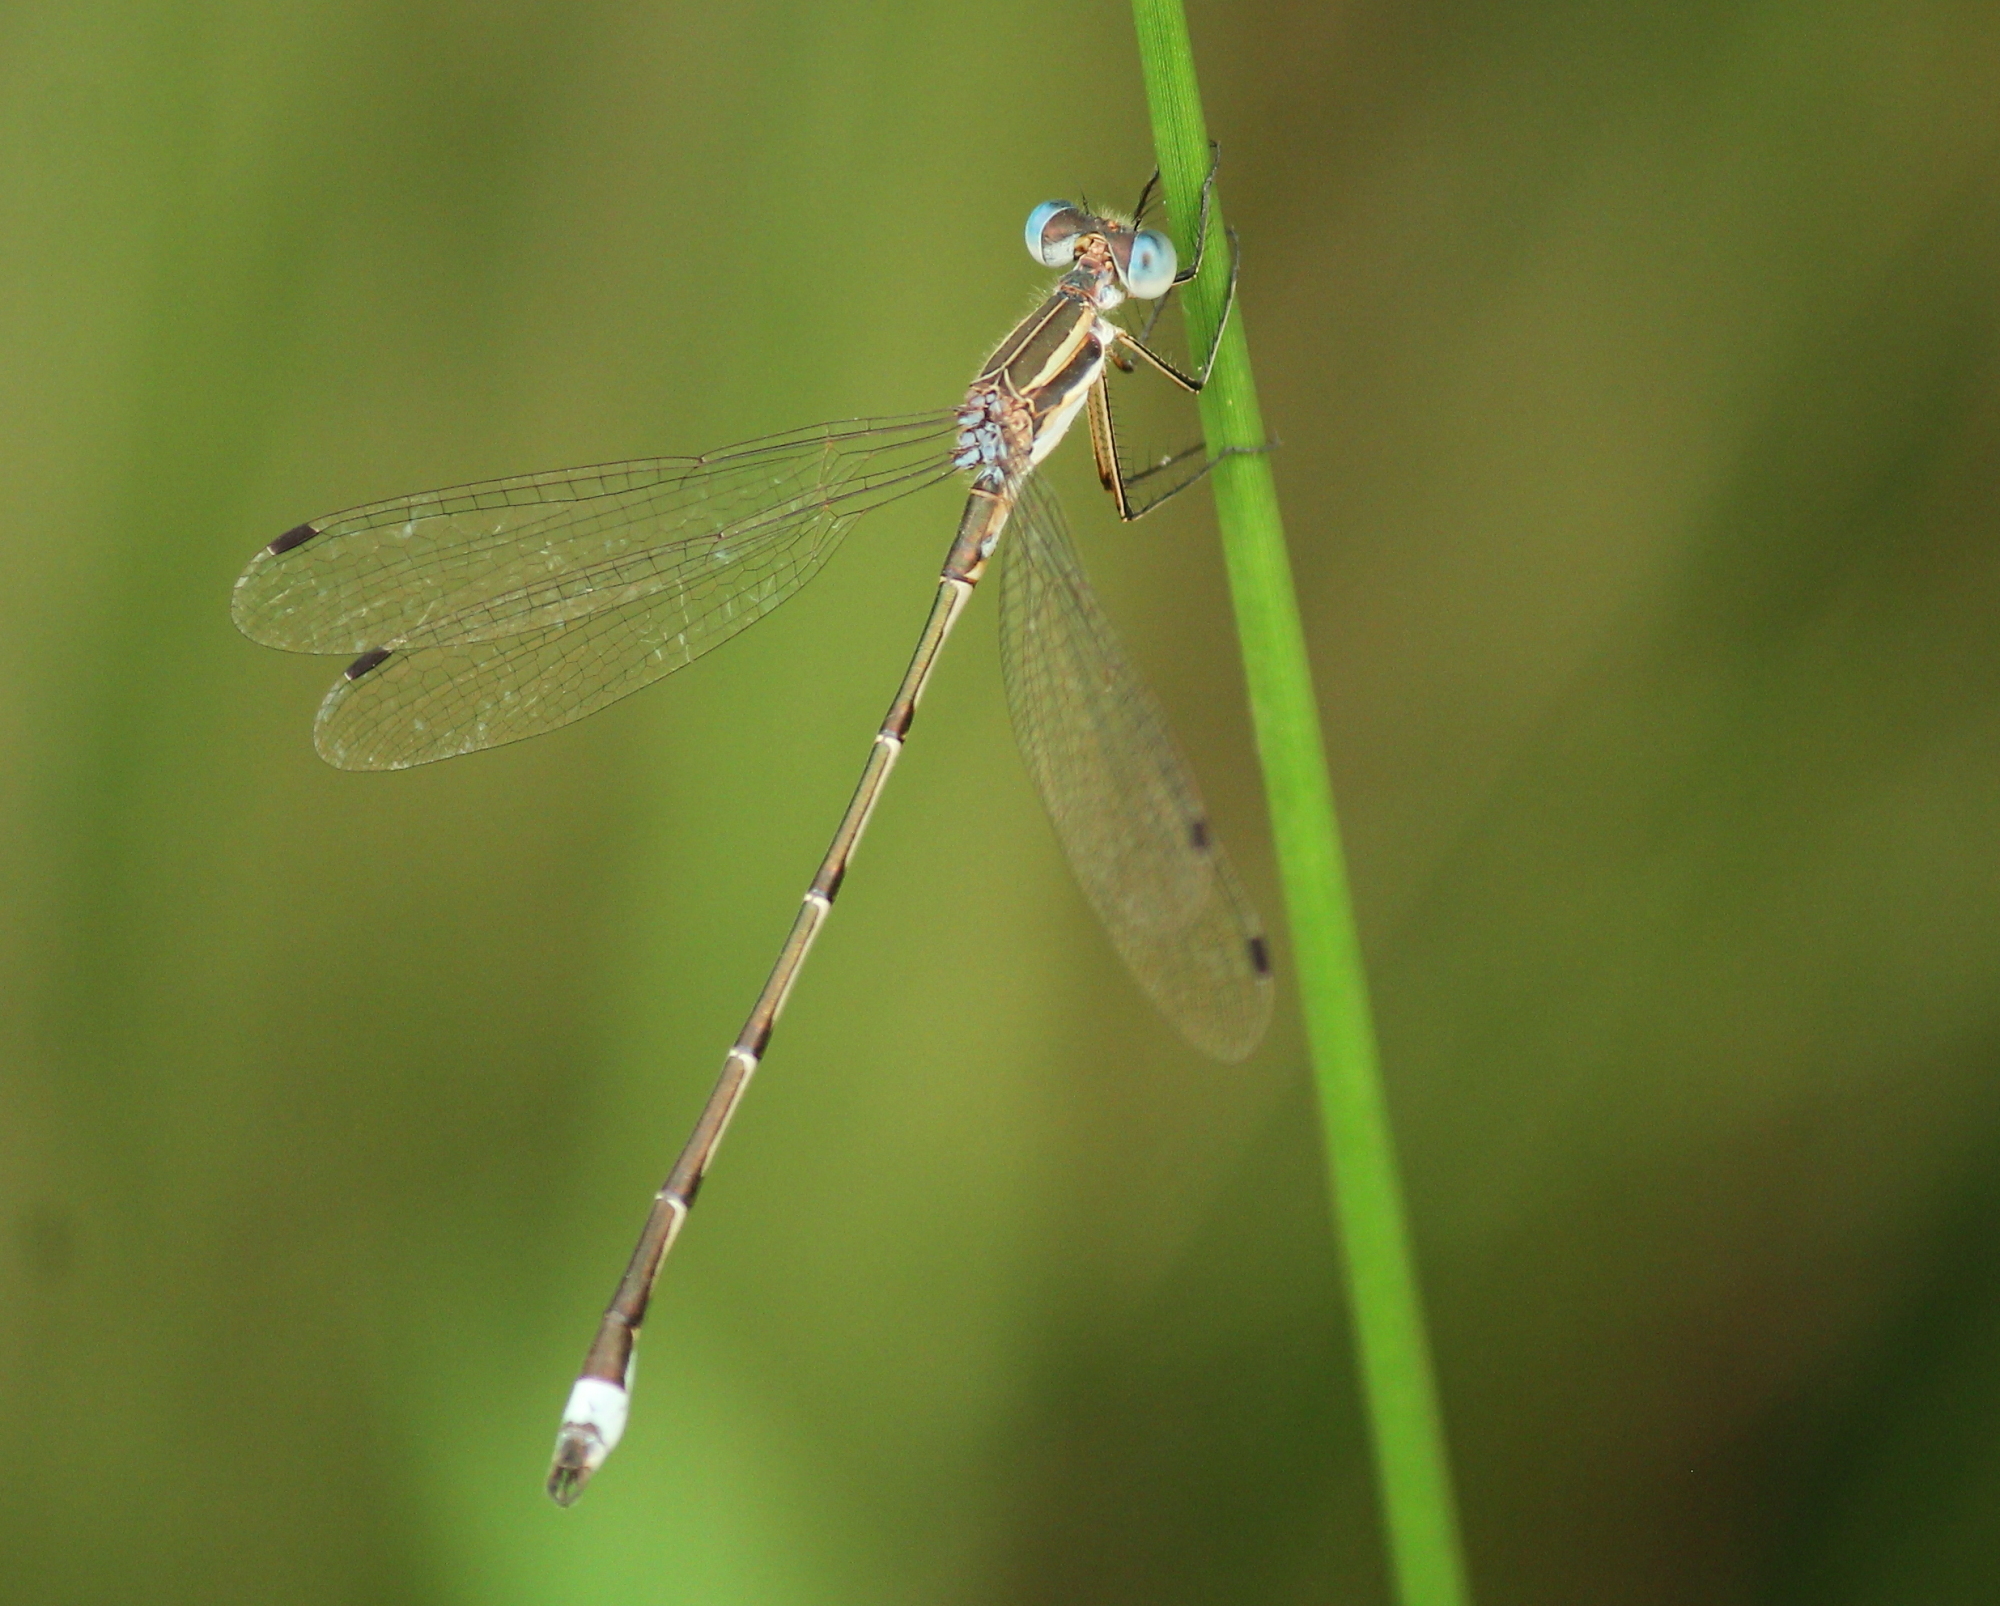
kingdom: Animalia
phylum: Arthropoda
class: Insecta
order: Odonata
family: Lestidae
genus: Lestes
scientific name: Lestes australis
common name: Southern spreadwing
